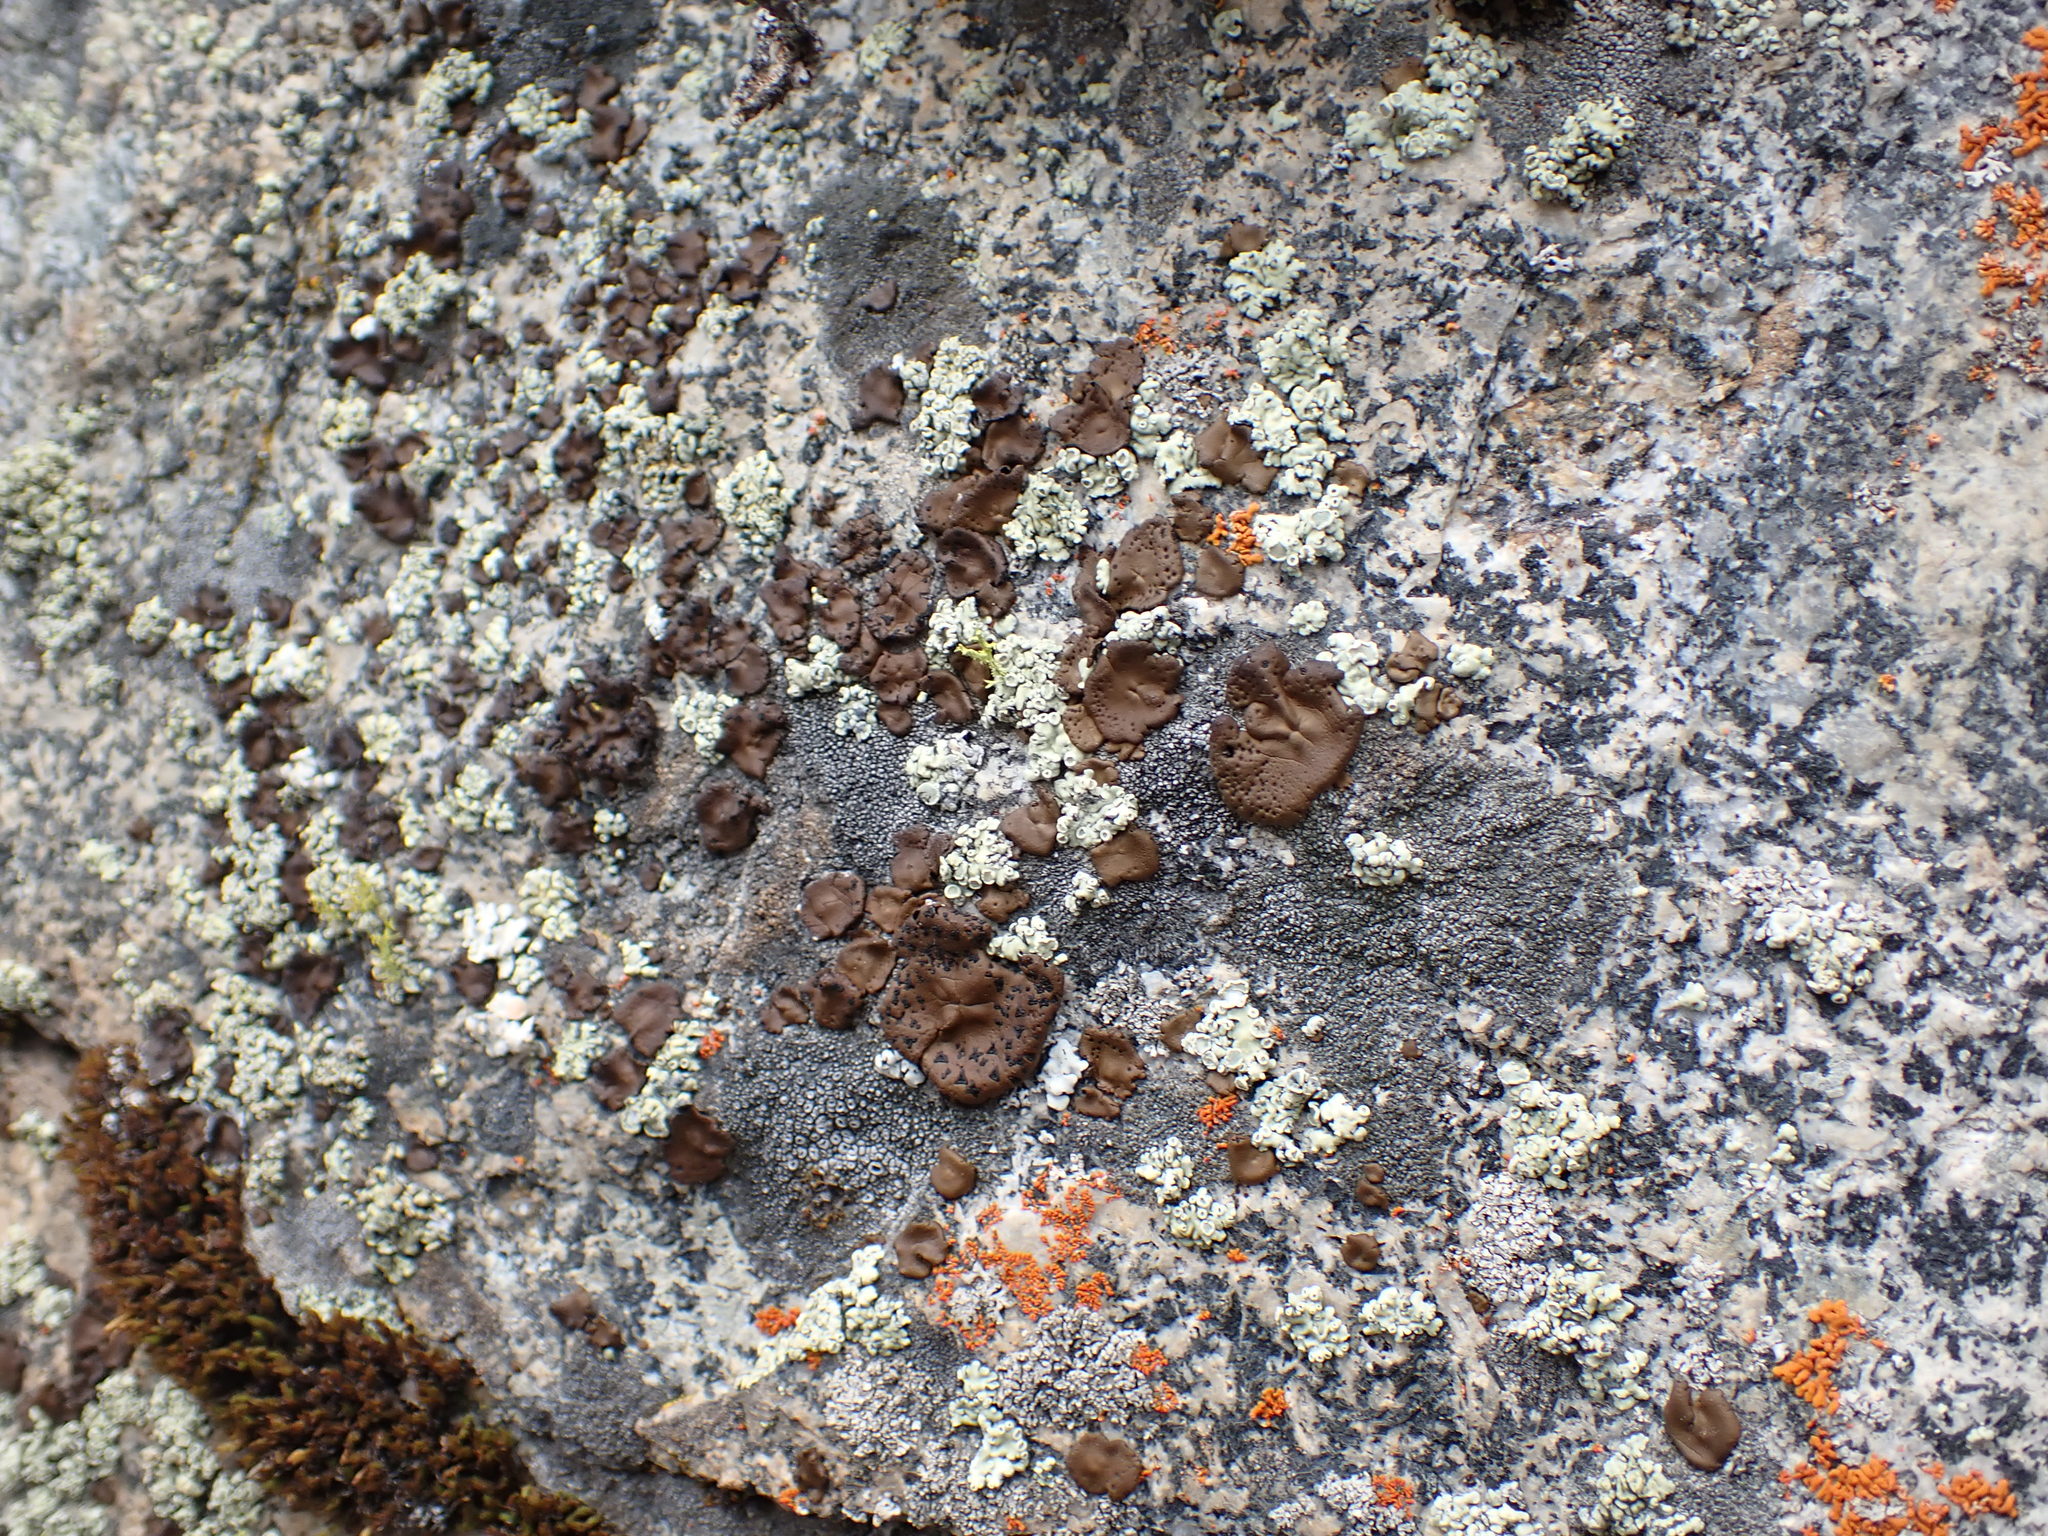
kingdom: Fungi
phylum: Ascomycota
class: Lecanoromycetes
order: Umbilicariales
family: Umbilicariaceae
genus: Umbilicaria
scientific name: Umbilicaria phaea
